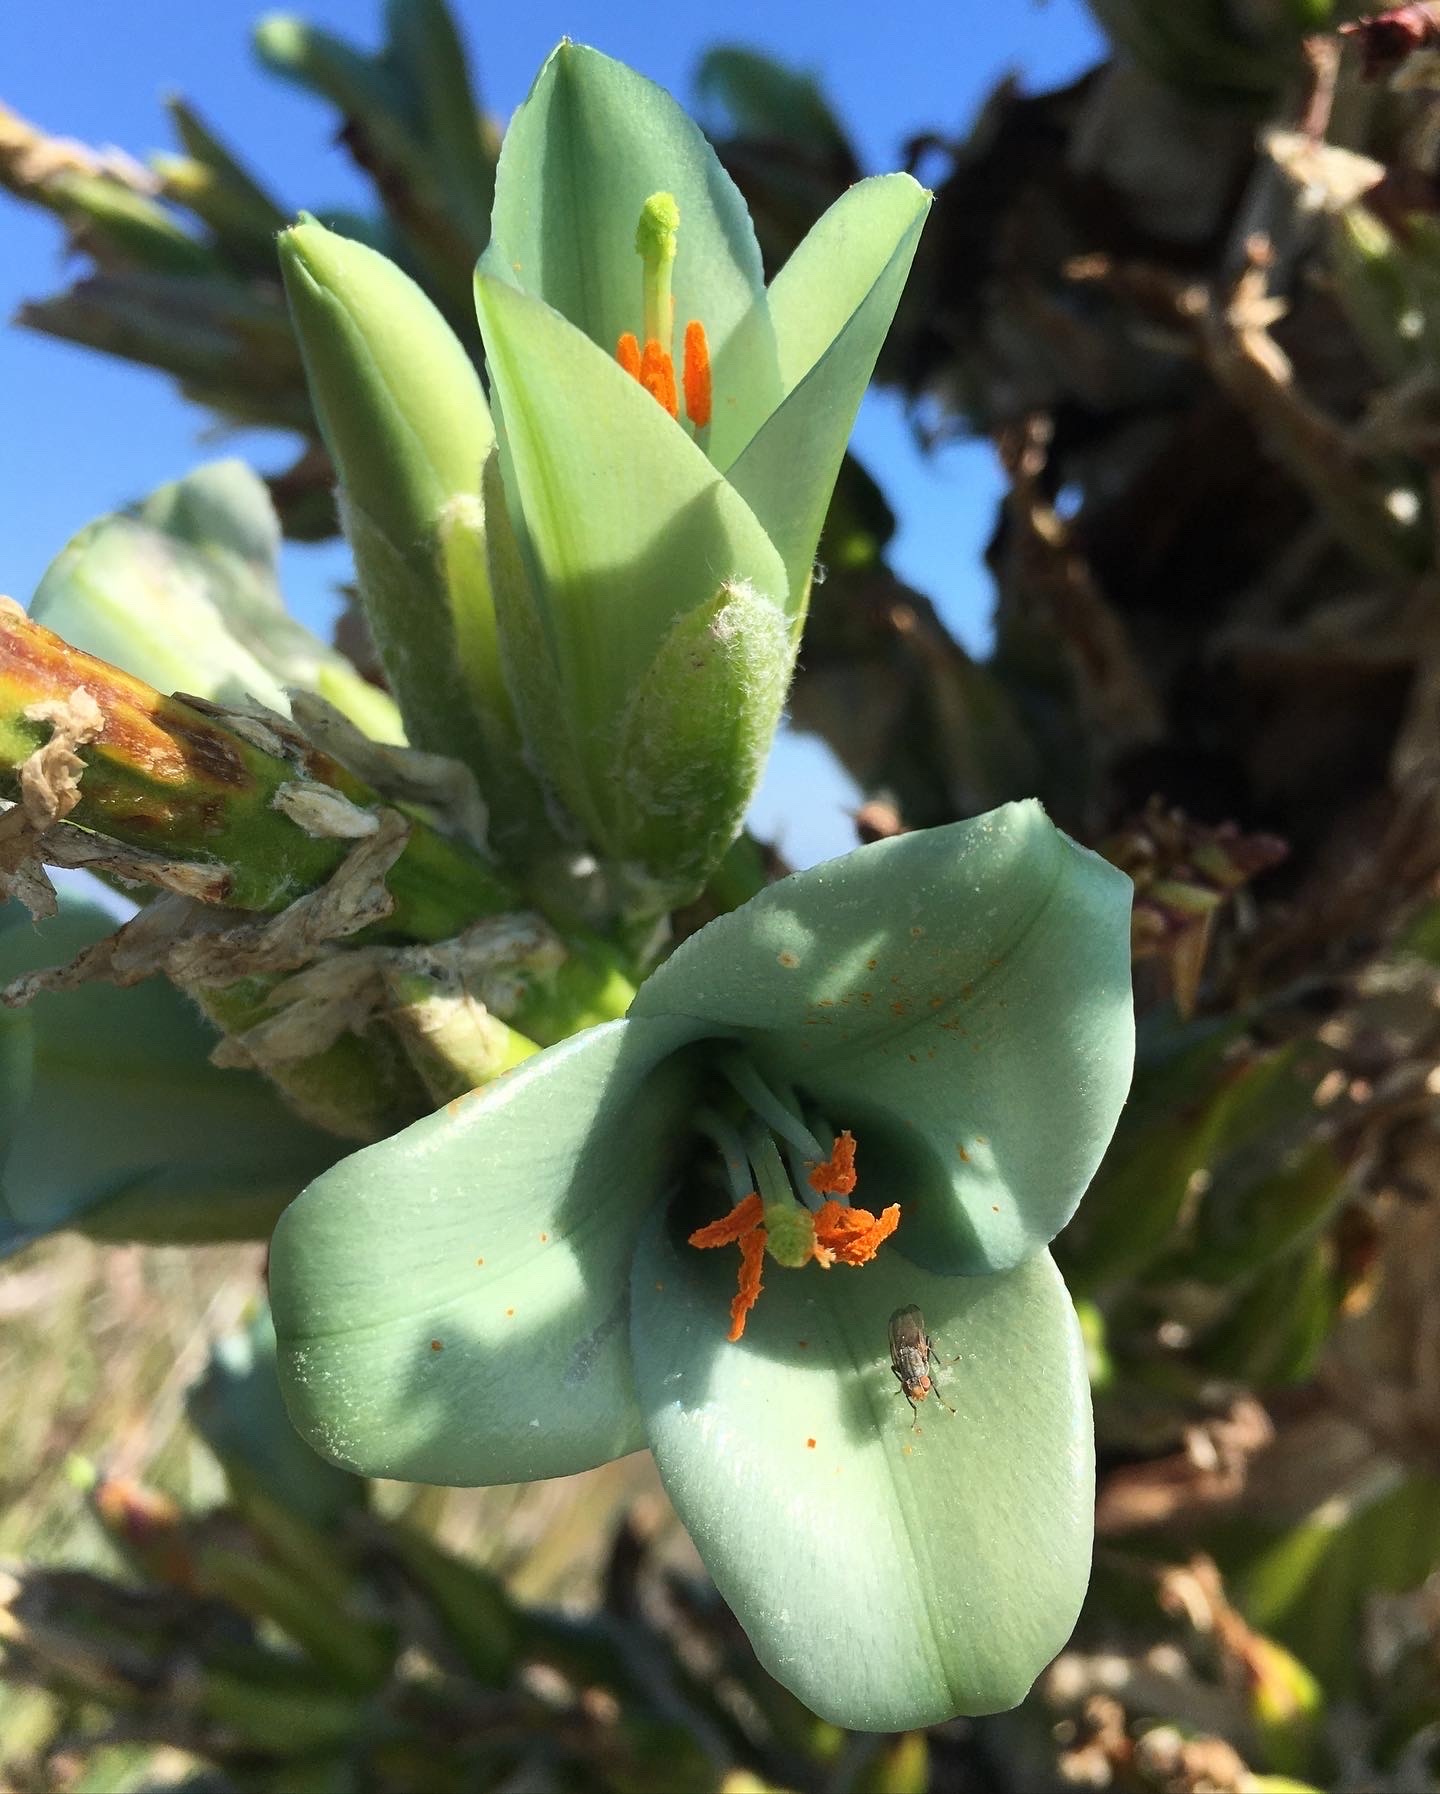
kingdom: Plantae
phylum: Tracheophyta
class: Liliopsida
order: Poales
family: Bromeliaceae
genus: Puya
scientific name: Puya alpestris
